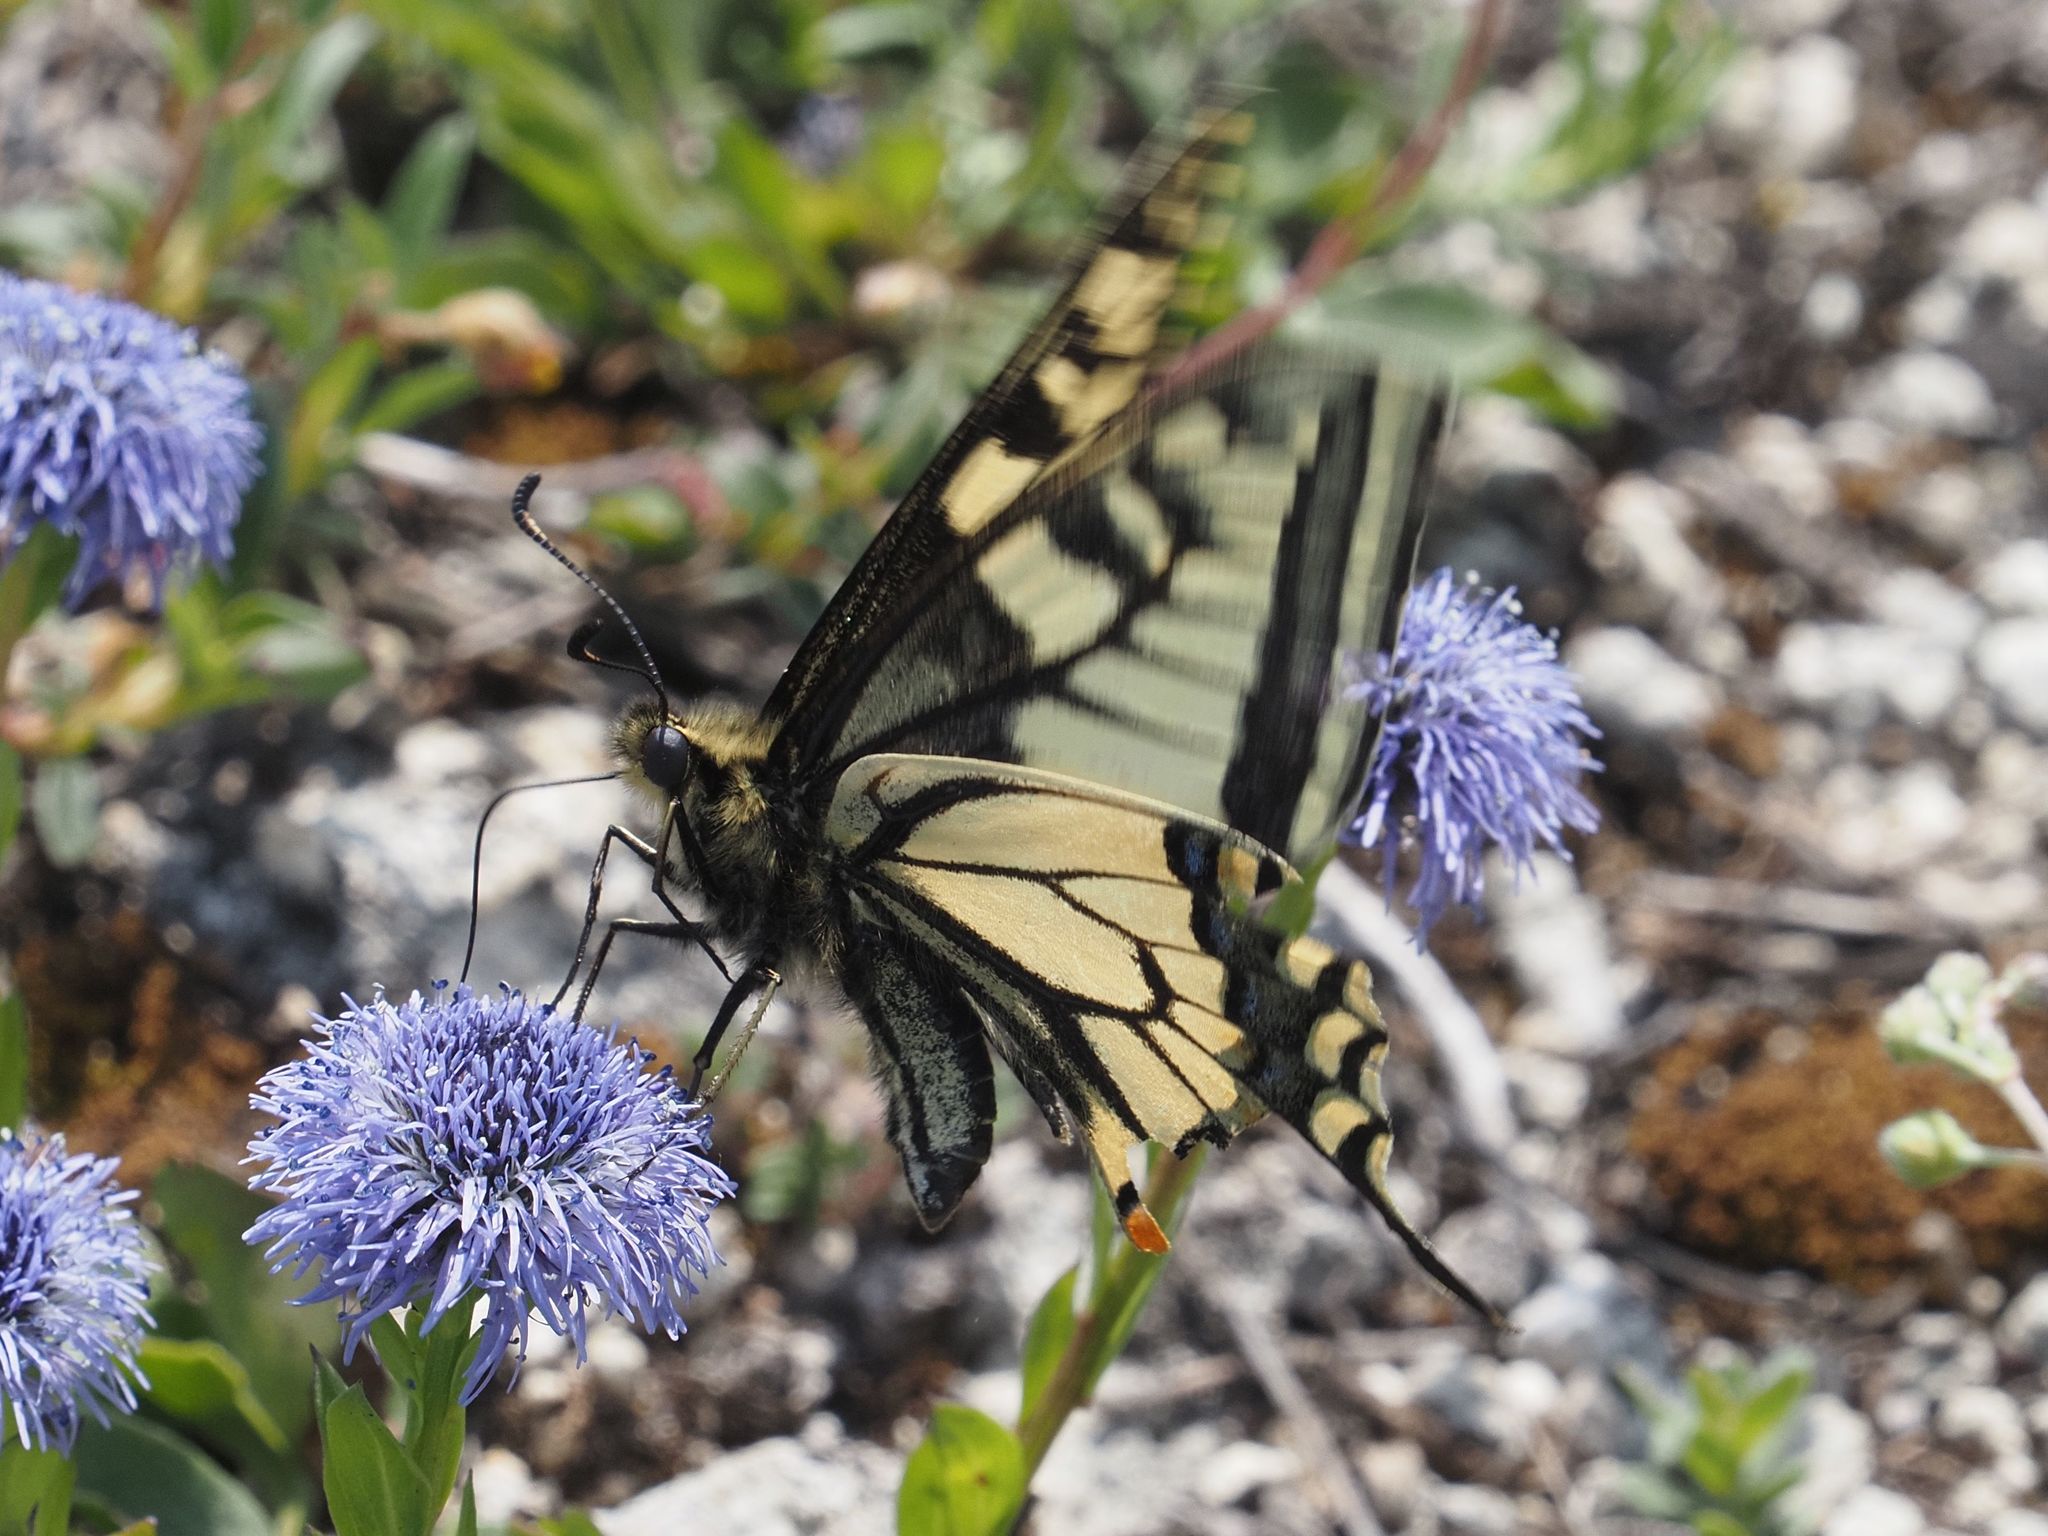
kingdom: Animalia
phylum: Arthropoda
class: Insecta
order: Lepidoptera
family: Papilionidae
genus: Papilio
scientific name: Papilio machaon
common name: Swallowtail
